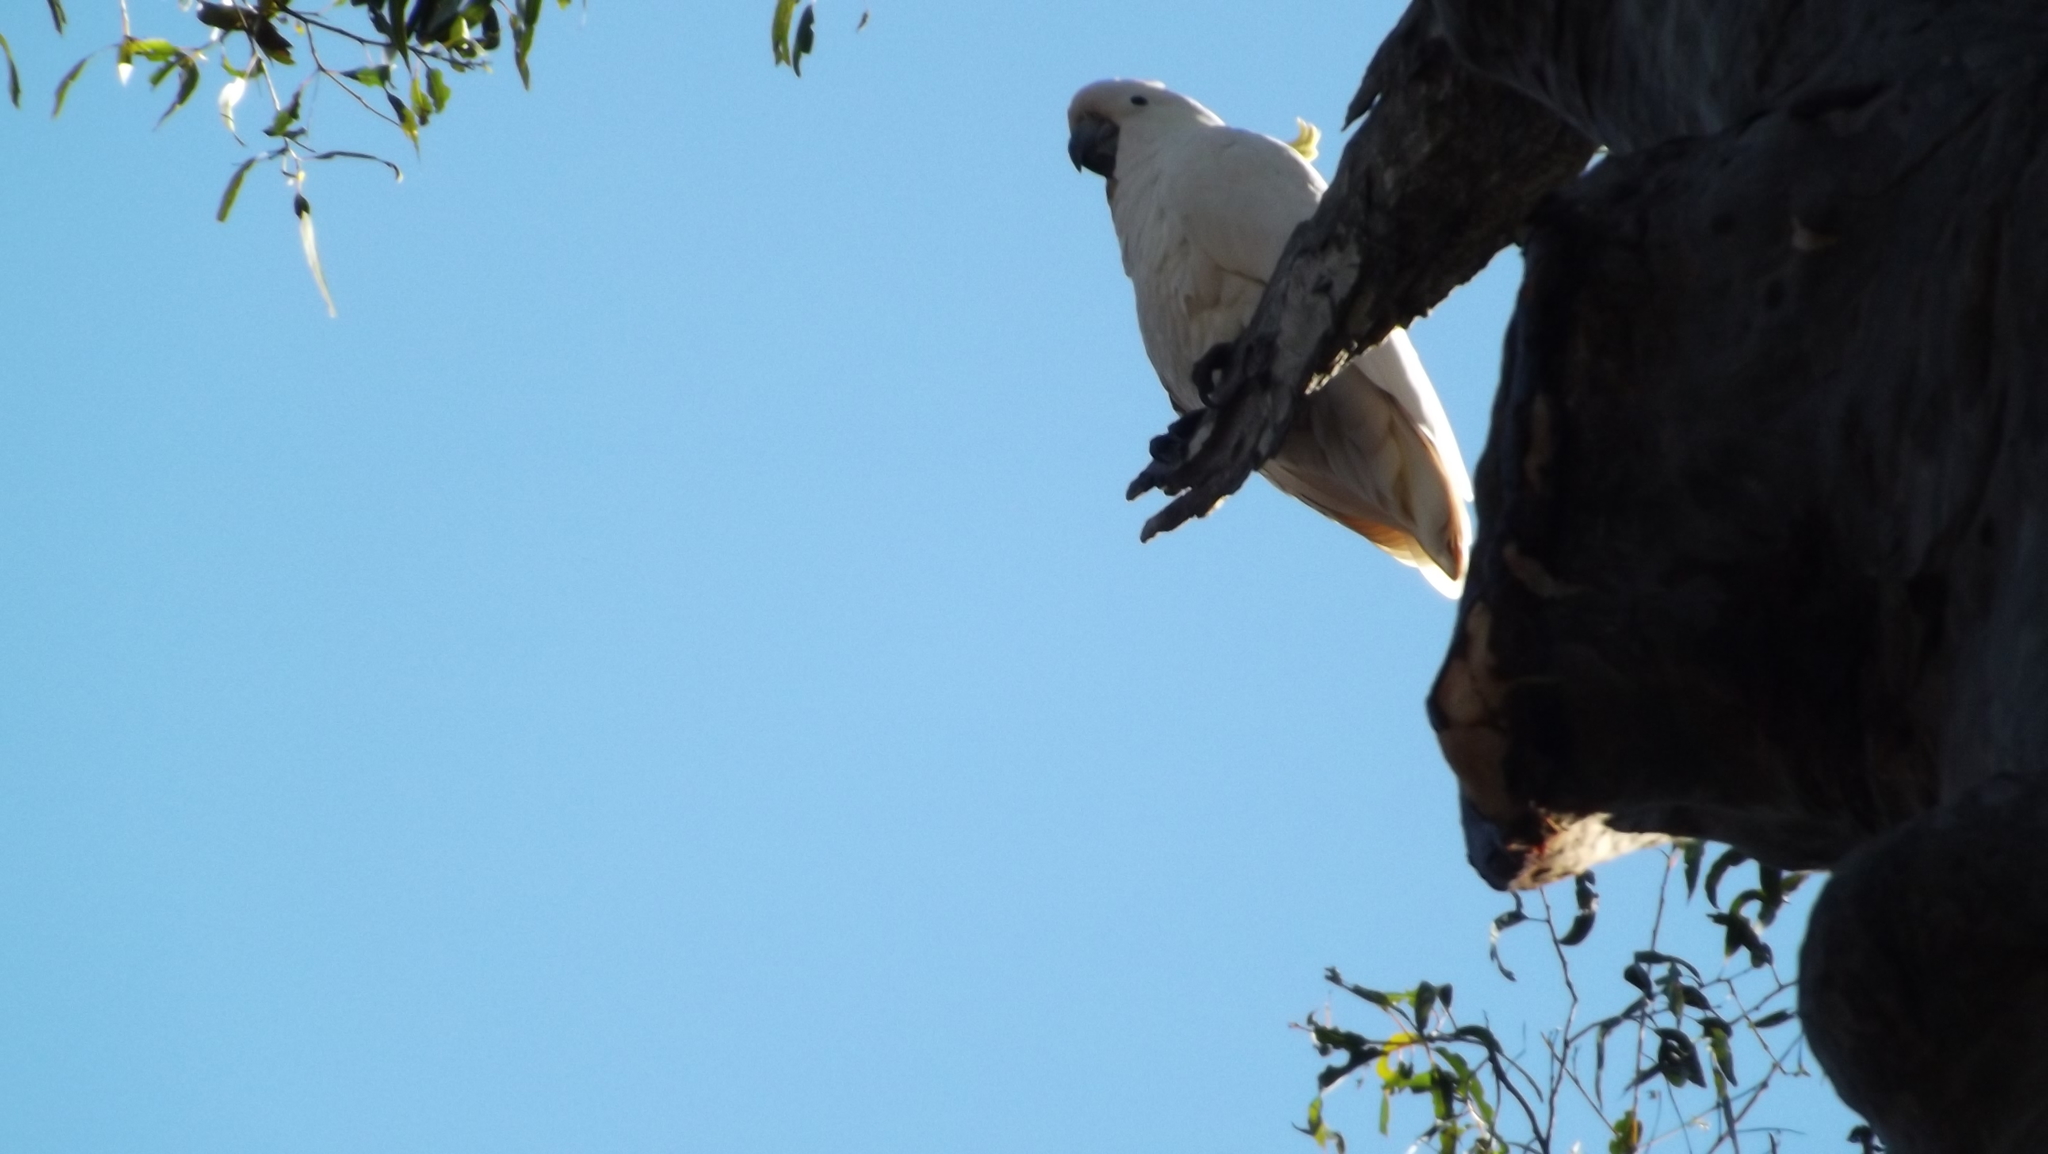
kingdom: Animalia
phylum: Chordata
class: Aves
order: Psittaciformes
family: Psittacidae
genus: Cacatua
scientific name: Cacatua galerita
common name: Sulphur-crested cockatoo
